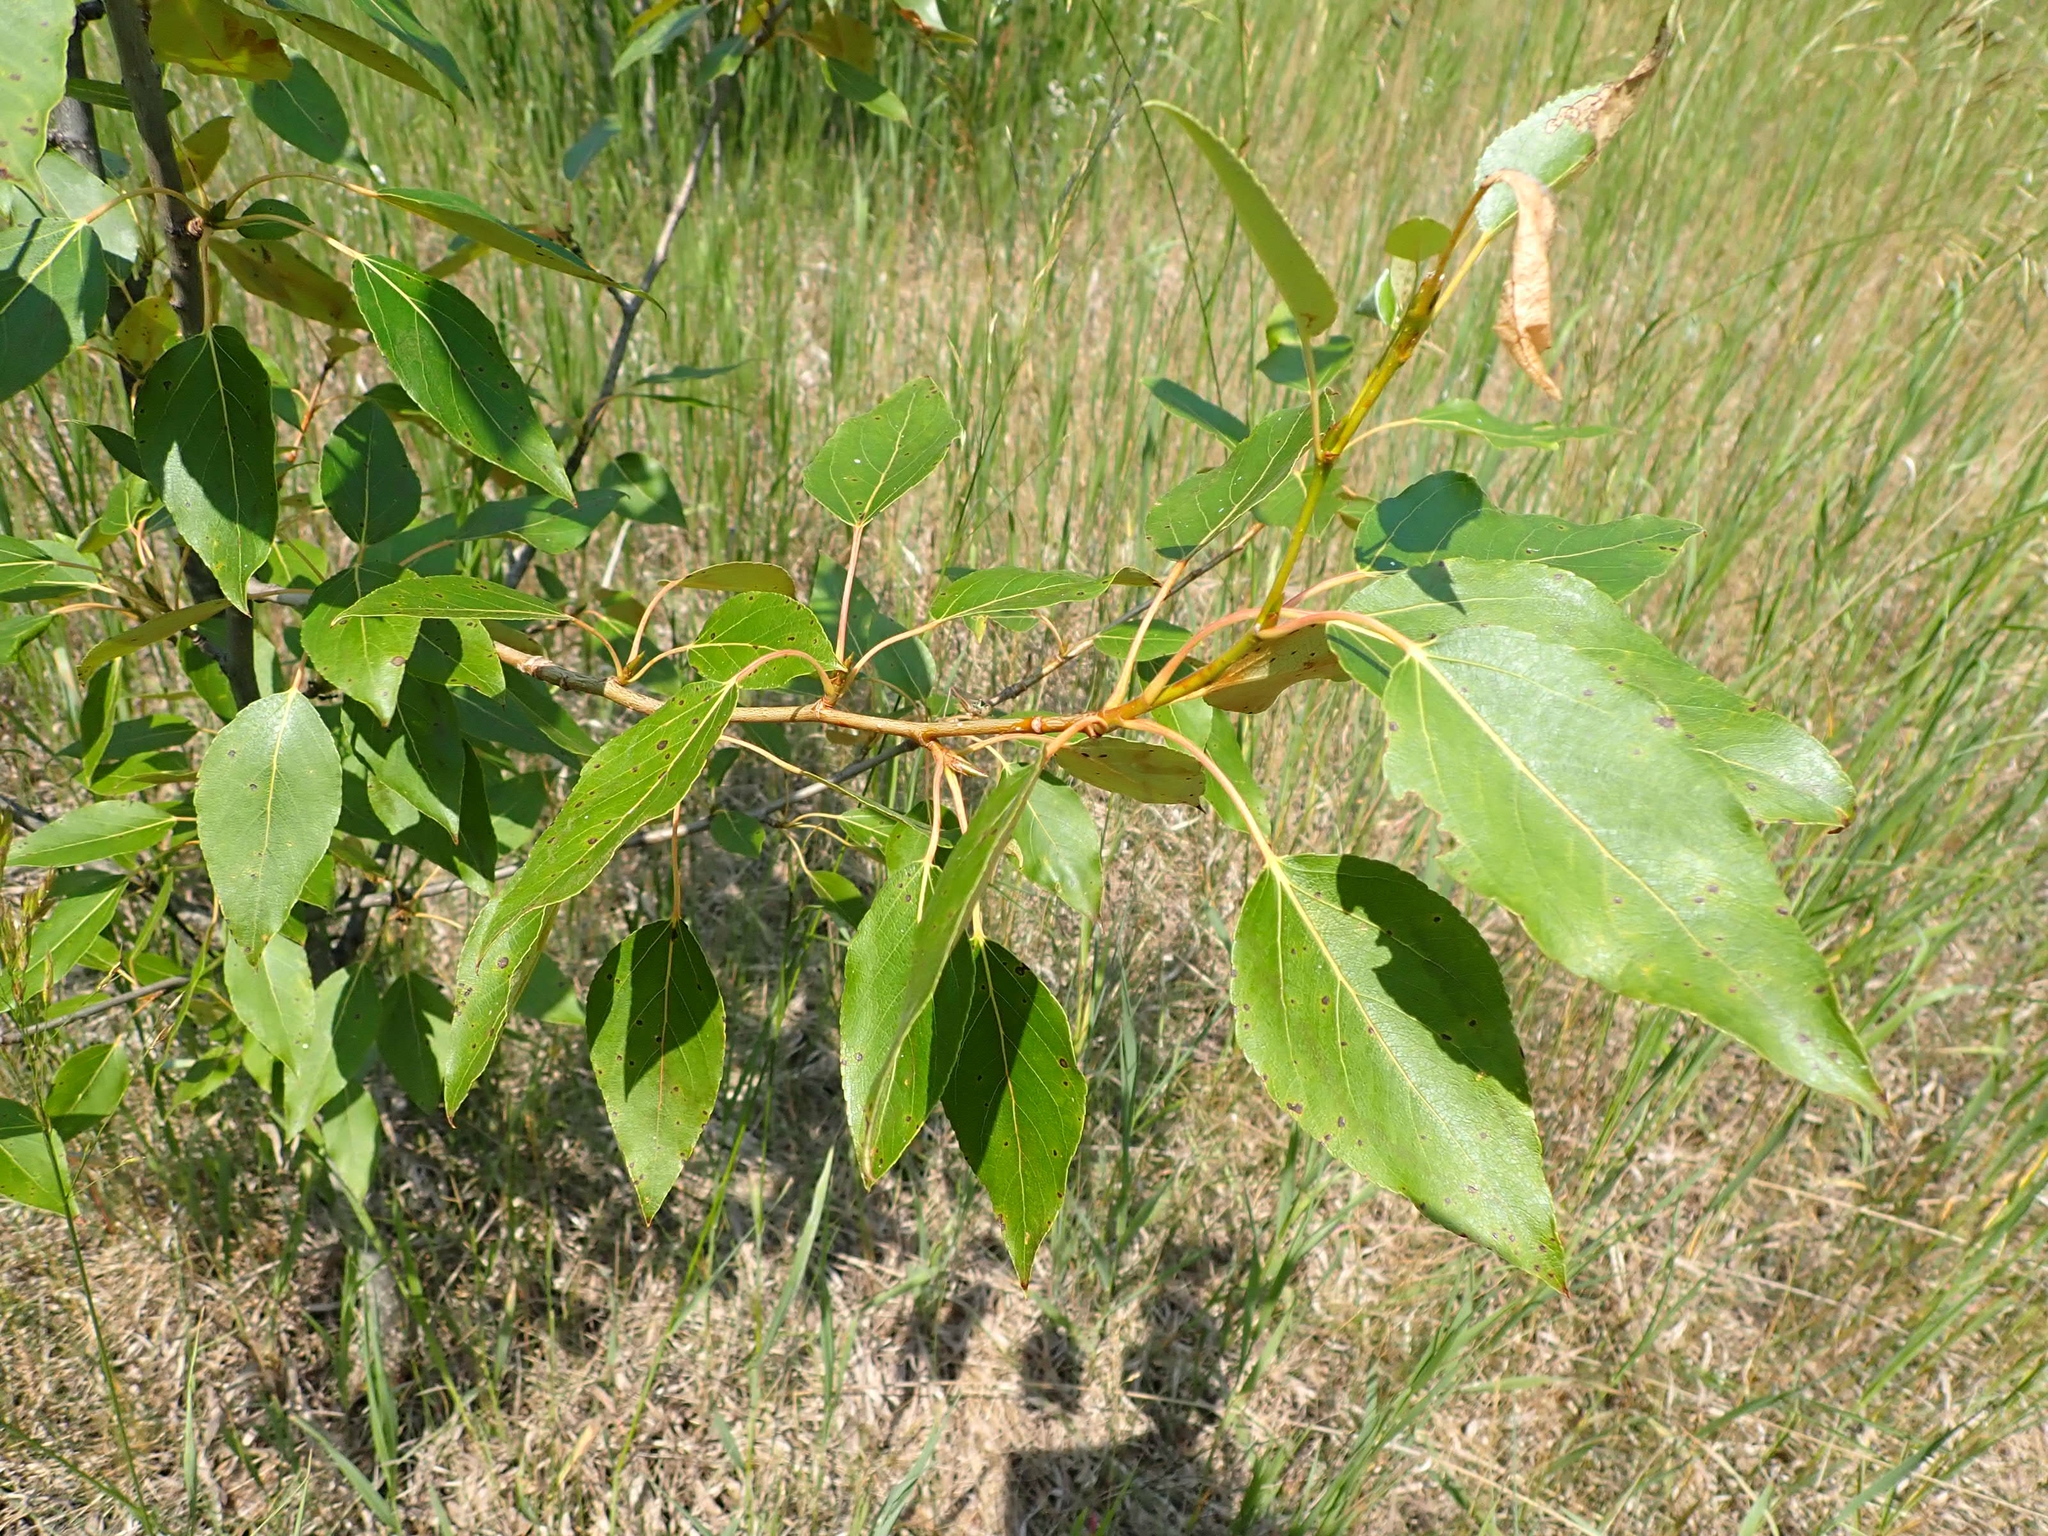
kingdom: Plantae
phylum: Tracheophyta
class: Magnoliopsida
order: Malpighiales
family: Salicaceae
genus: Populus
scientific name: Populus balsamifera
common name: Balsam poplar
